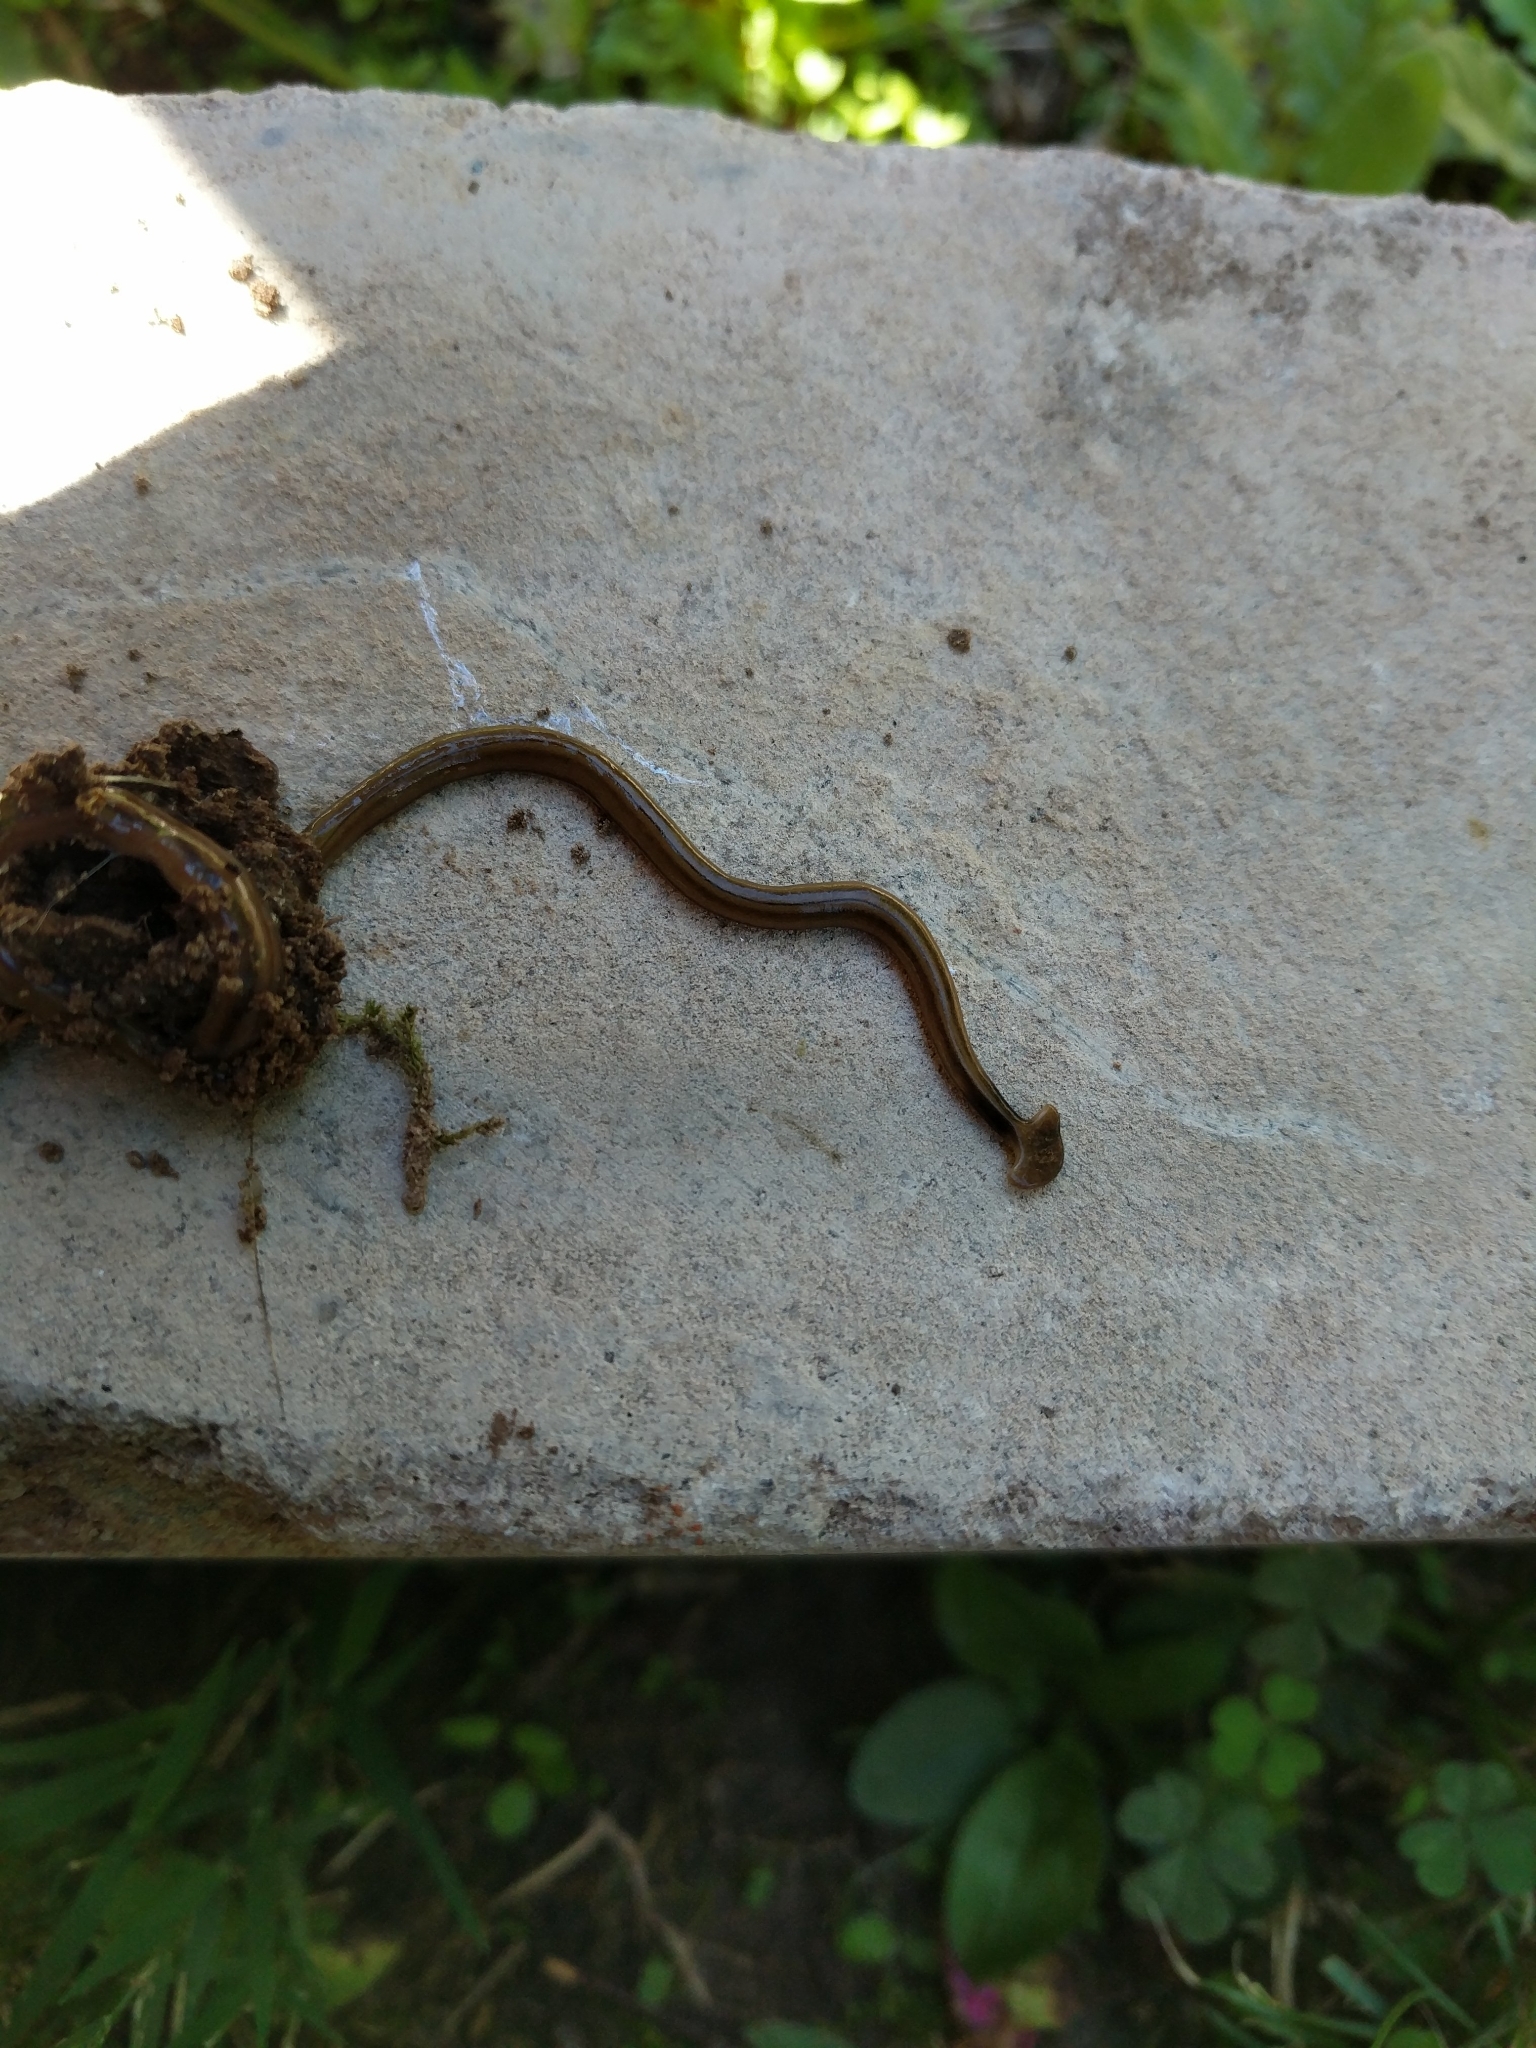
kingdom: Animalia
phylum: Platyhelminthes
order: Tricladida
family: Geoplanidae
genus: Bipalium
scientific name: Bipalium kewense
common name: Hammerhead flatworm
